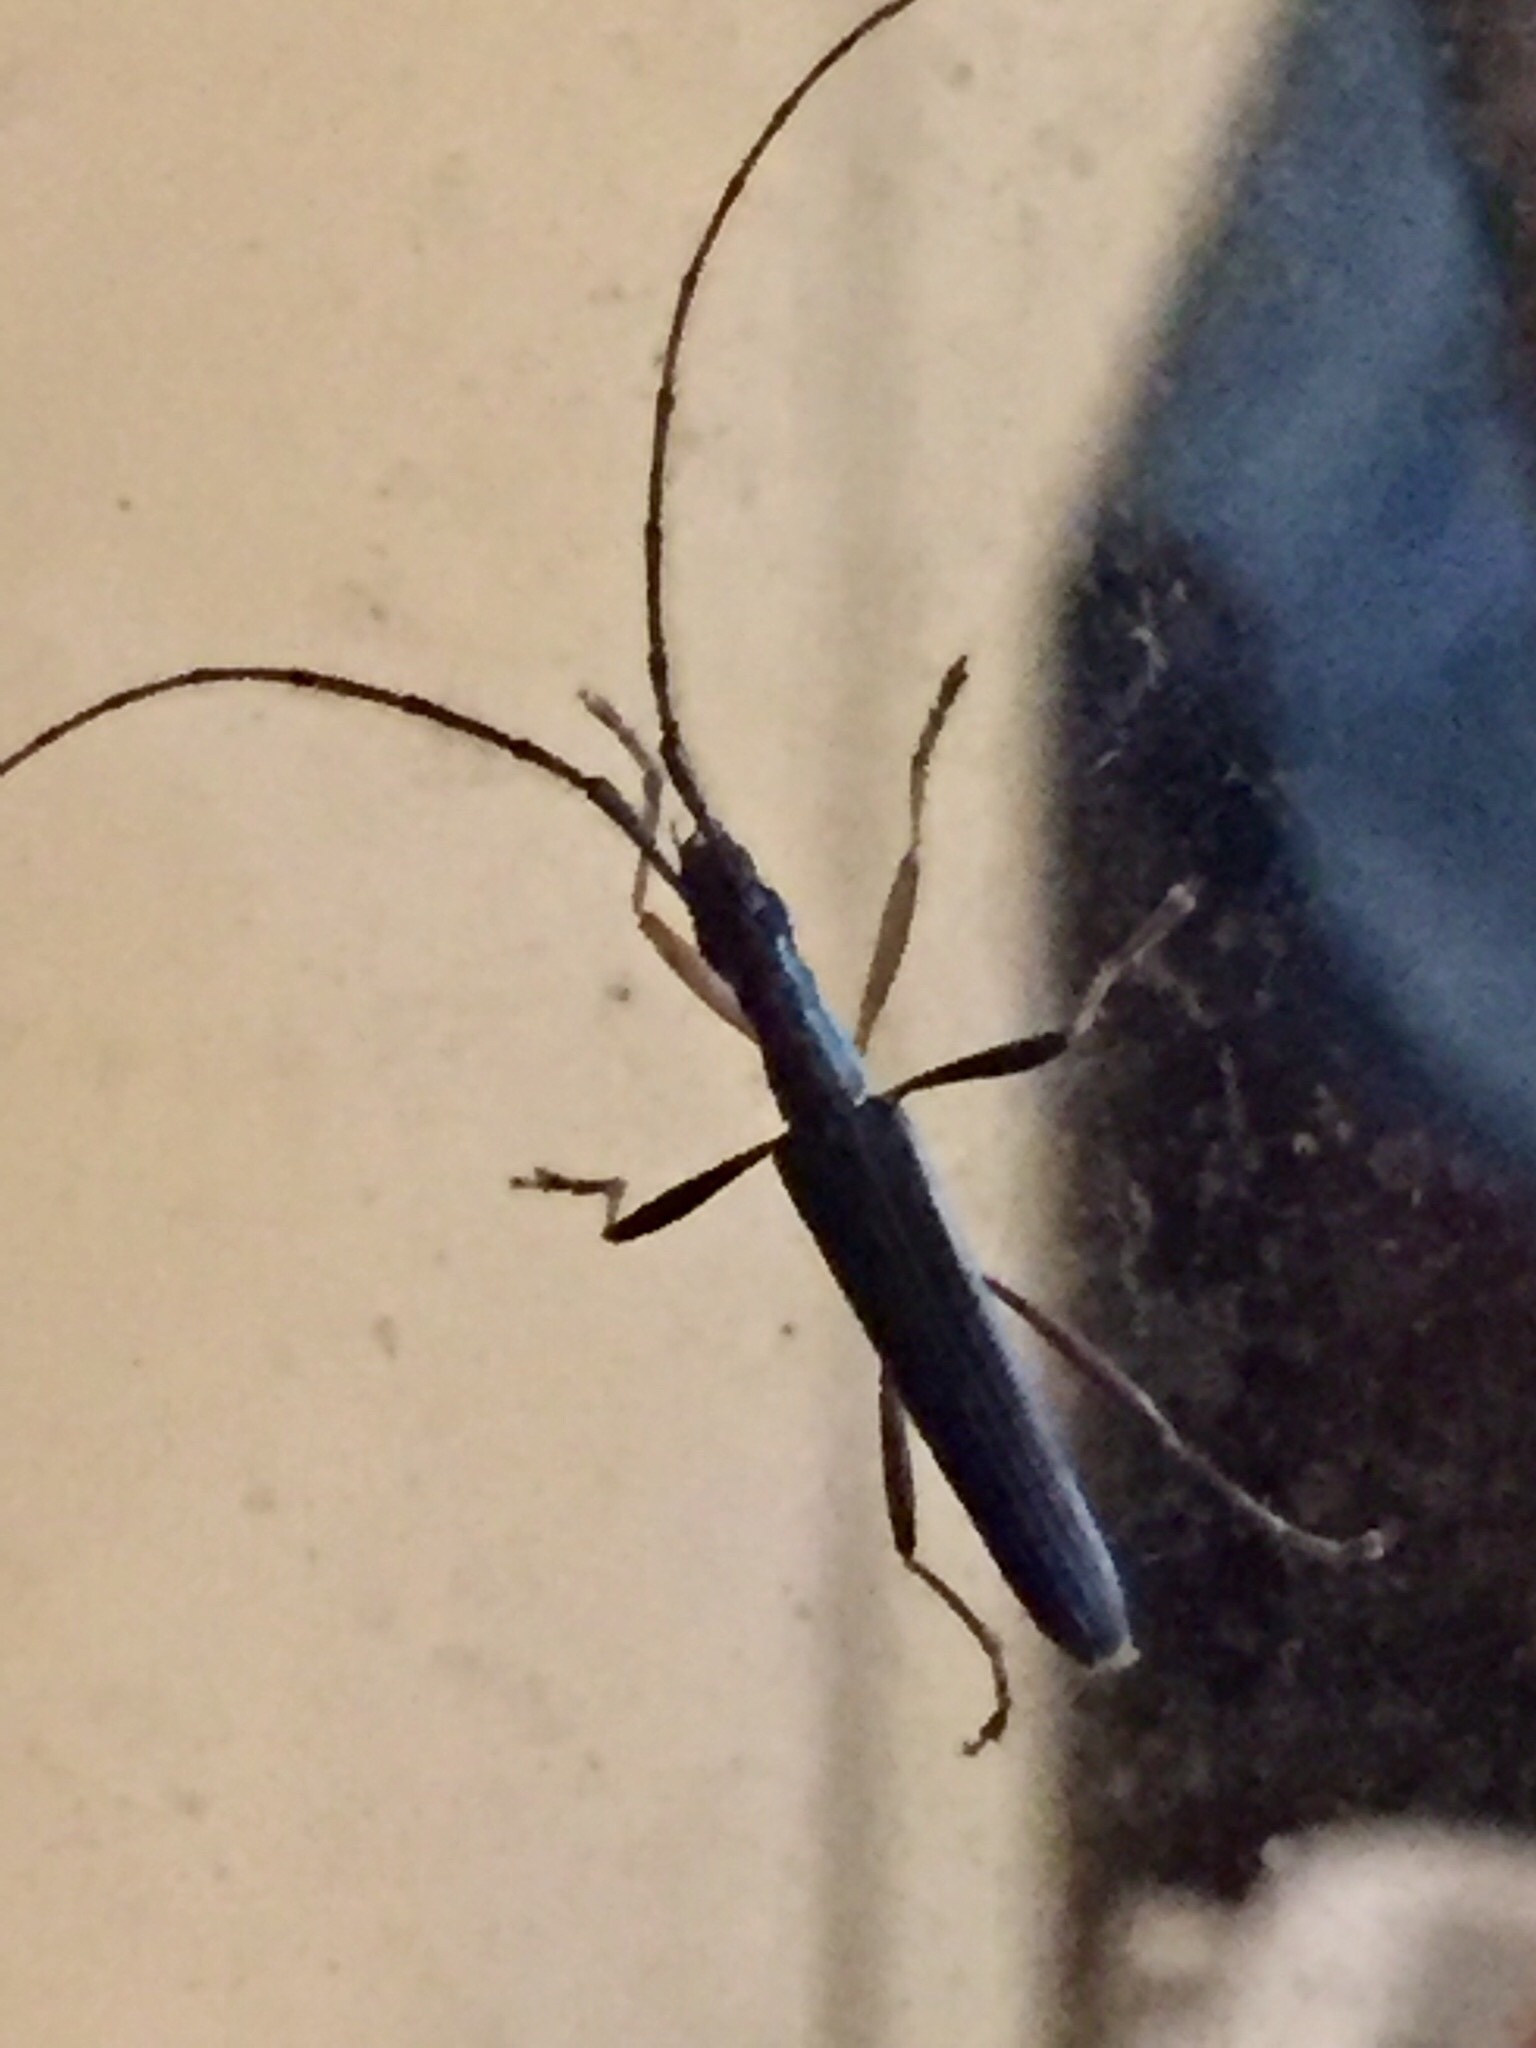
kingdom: Animalia
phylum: Arthropoda
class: Insecta
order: Coleoptera
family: Cerambycidae
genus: Stenopotes
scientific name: Stenopotes pallidus
